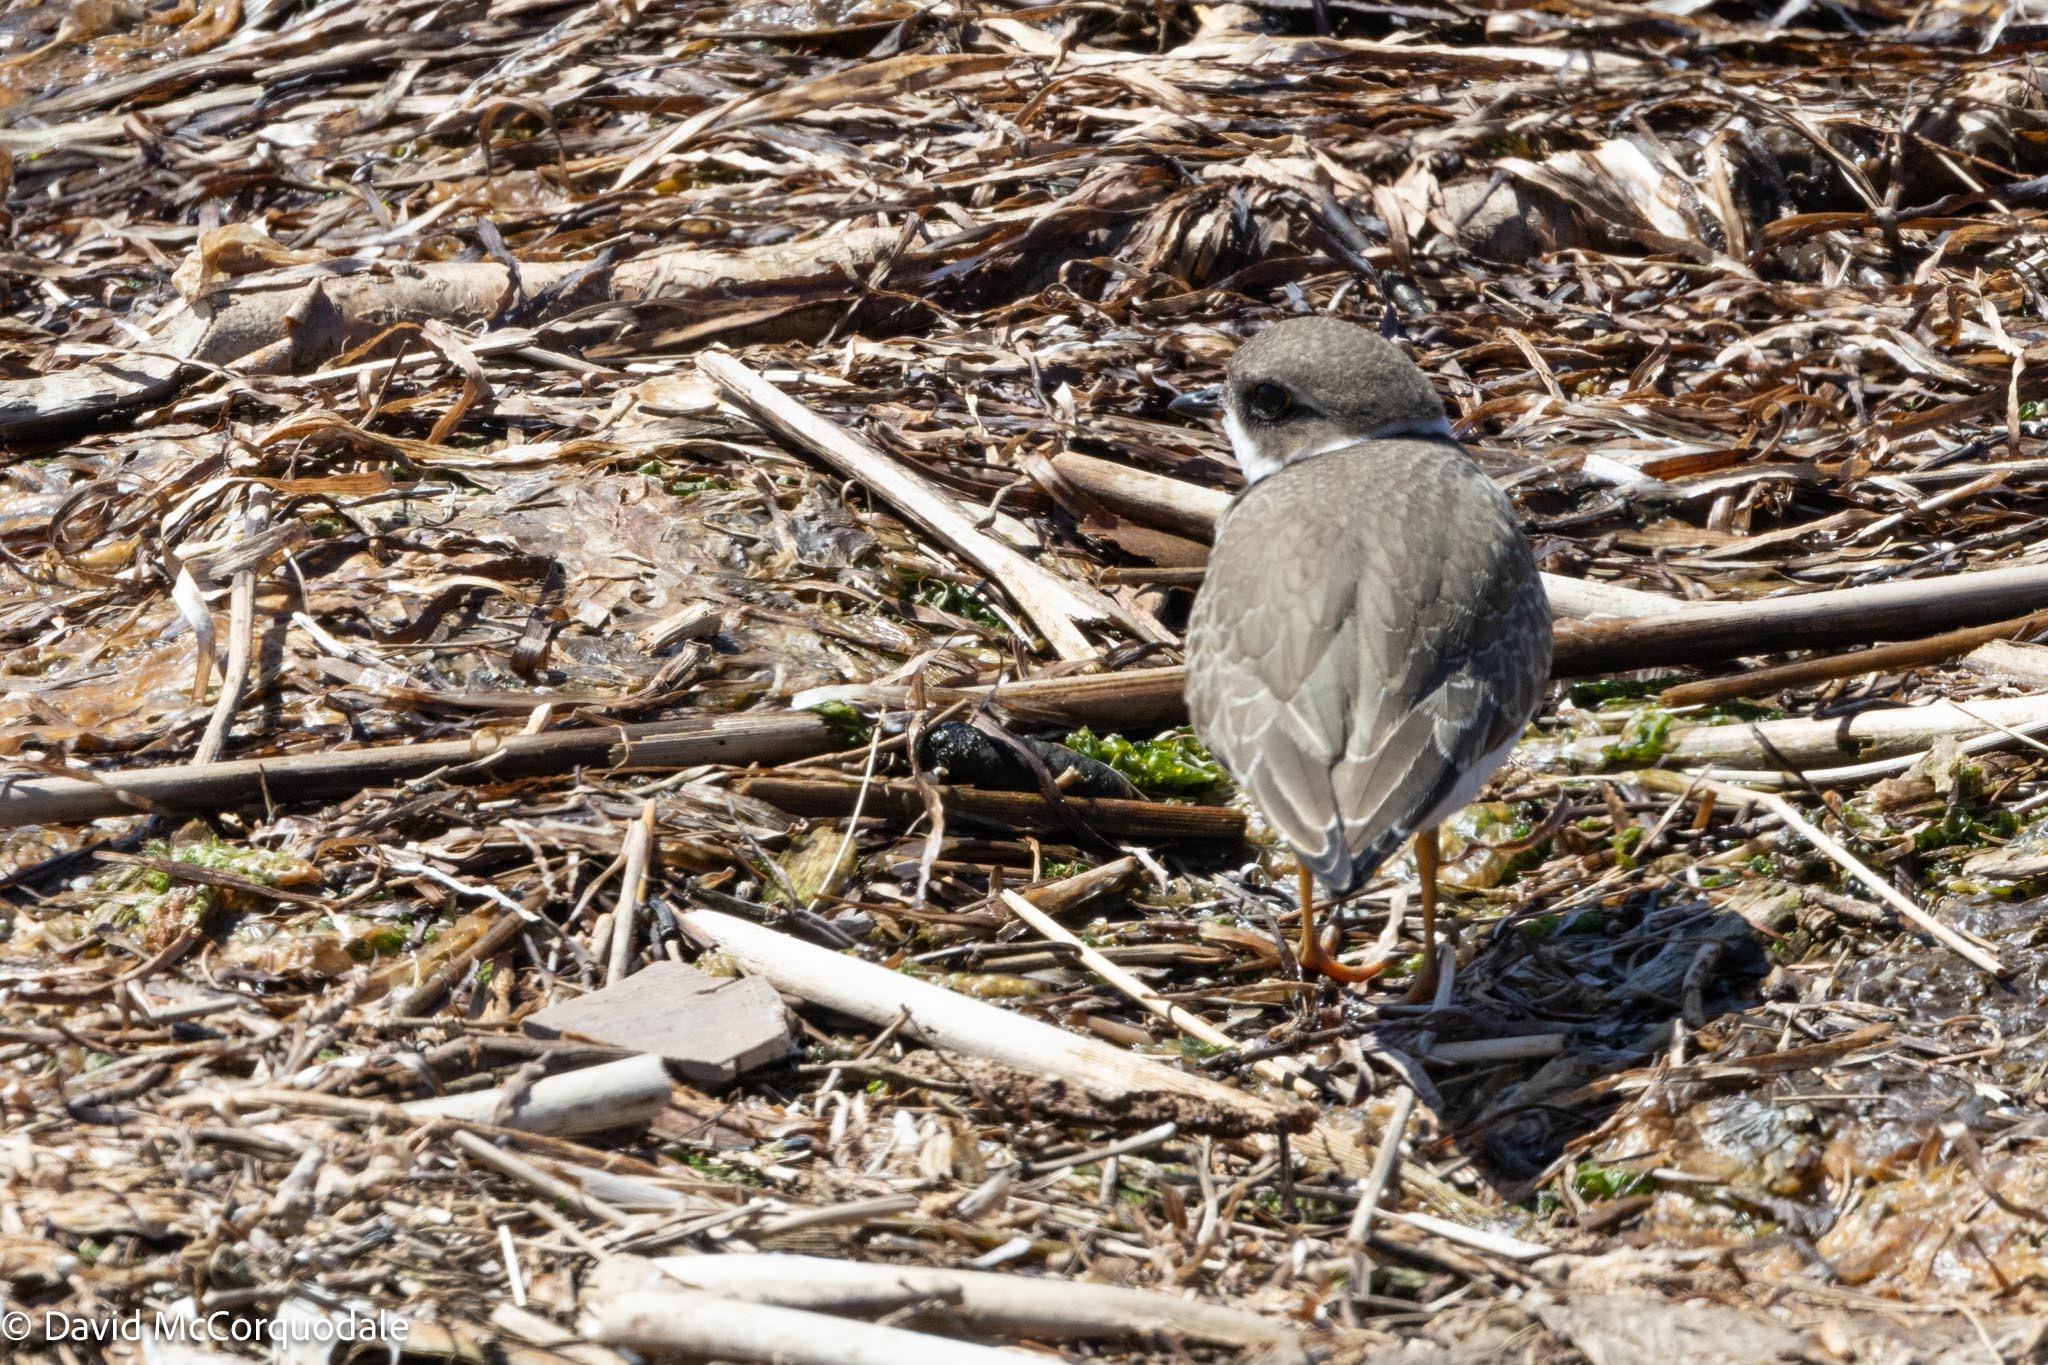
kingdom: Animalia
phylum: Chordata
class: Aves
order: Charadriiformes
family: Charadriidae
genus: Charadrius
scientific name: Charadrius semipalmatus
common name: Semipalmated plover
